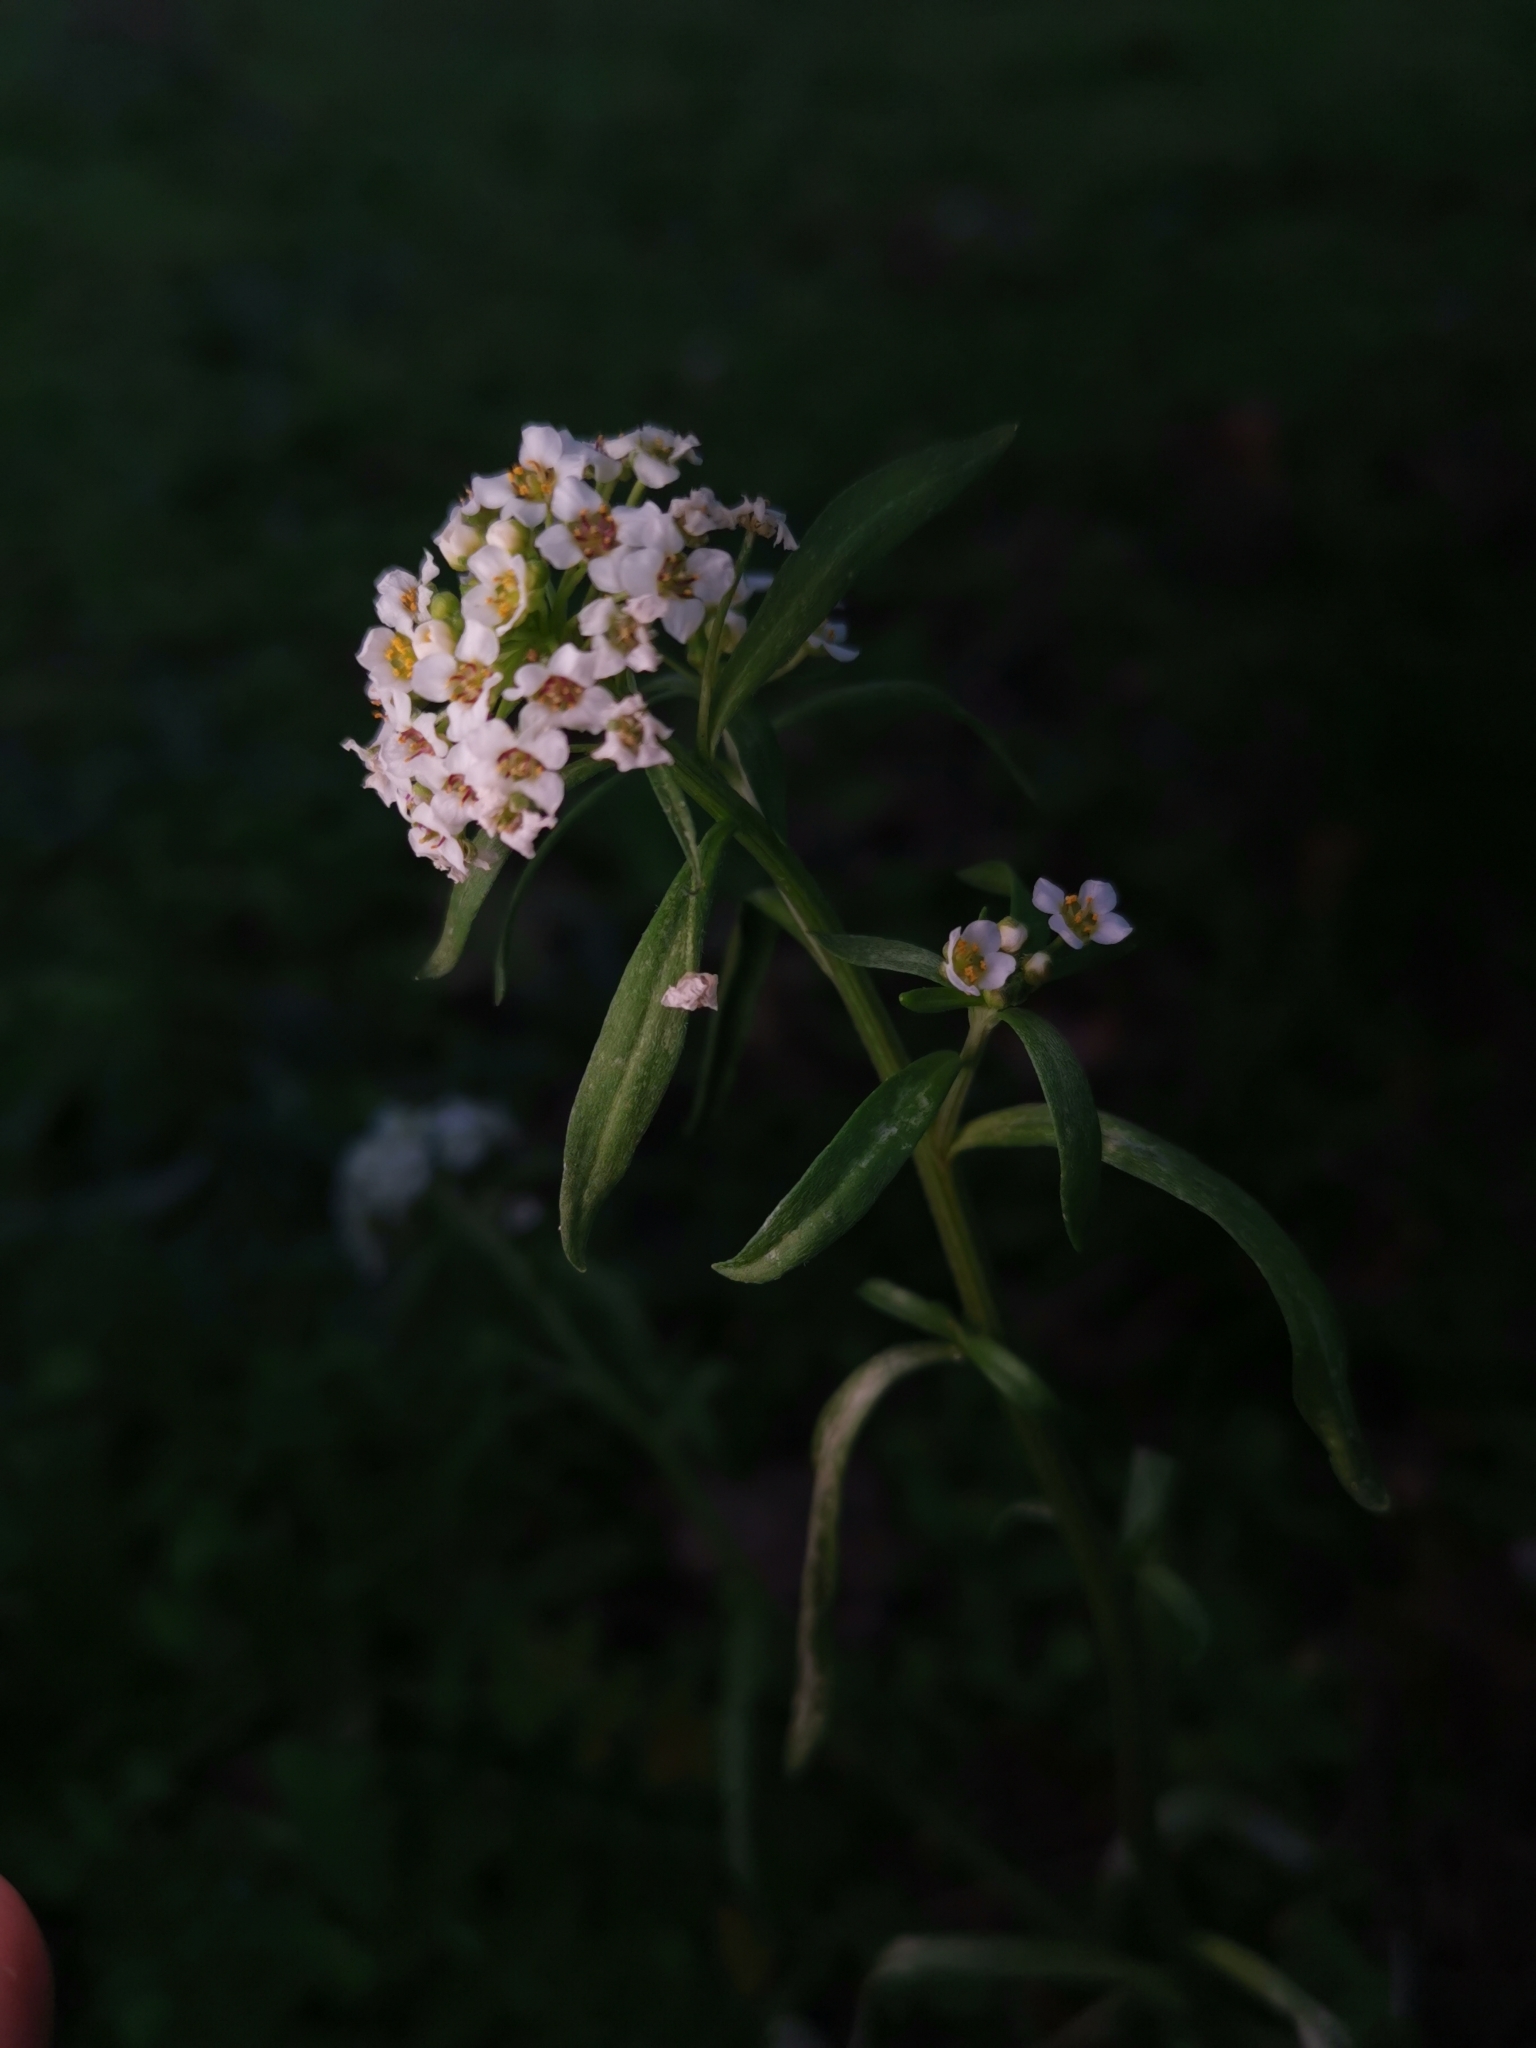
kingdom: Plantae
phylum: Tracheophyta
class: Magnoliopsida
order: Brassicales
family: Brassicaceae
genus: Lobularia
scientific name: Lobularia maritima
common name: Sweet alison
